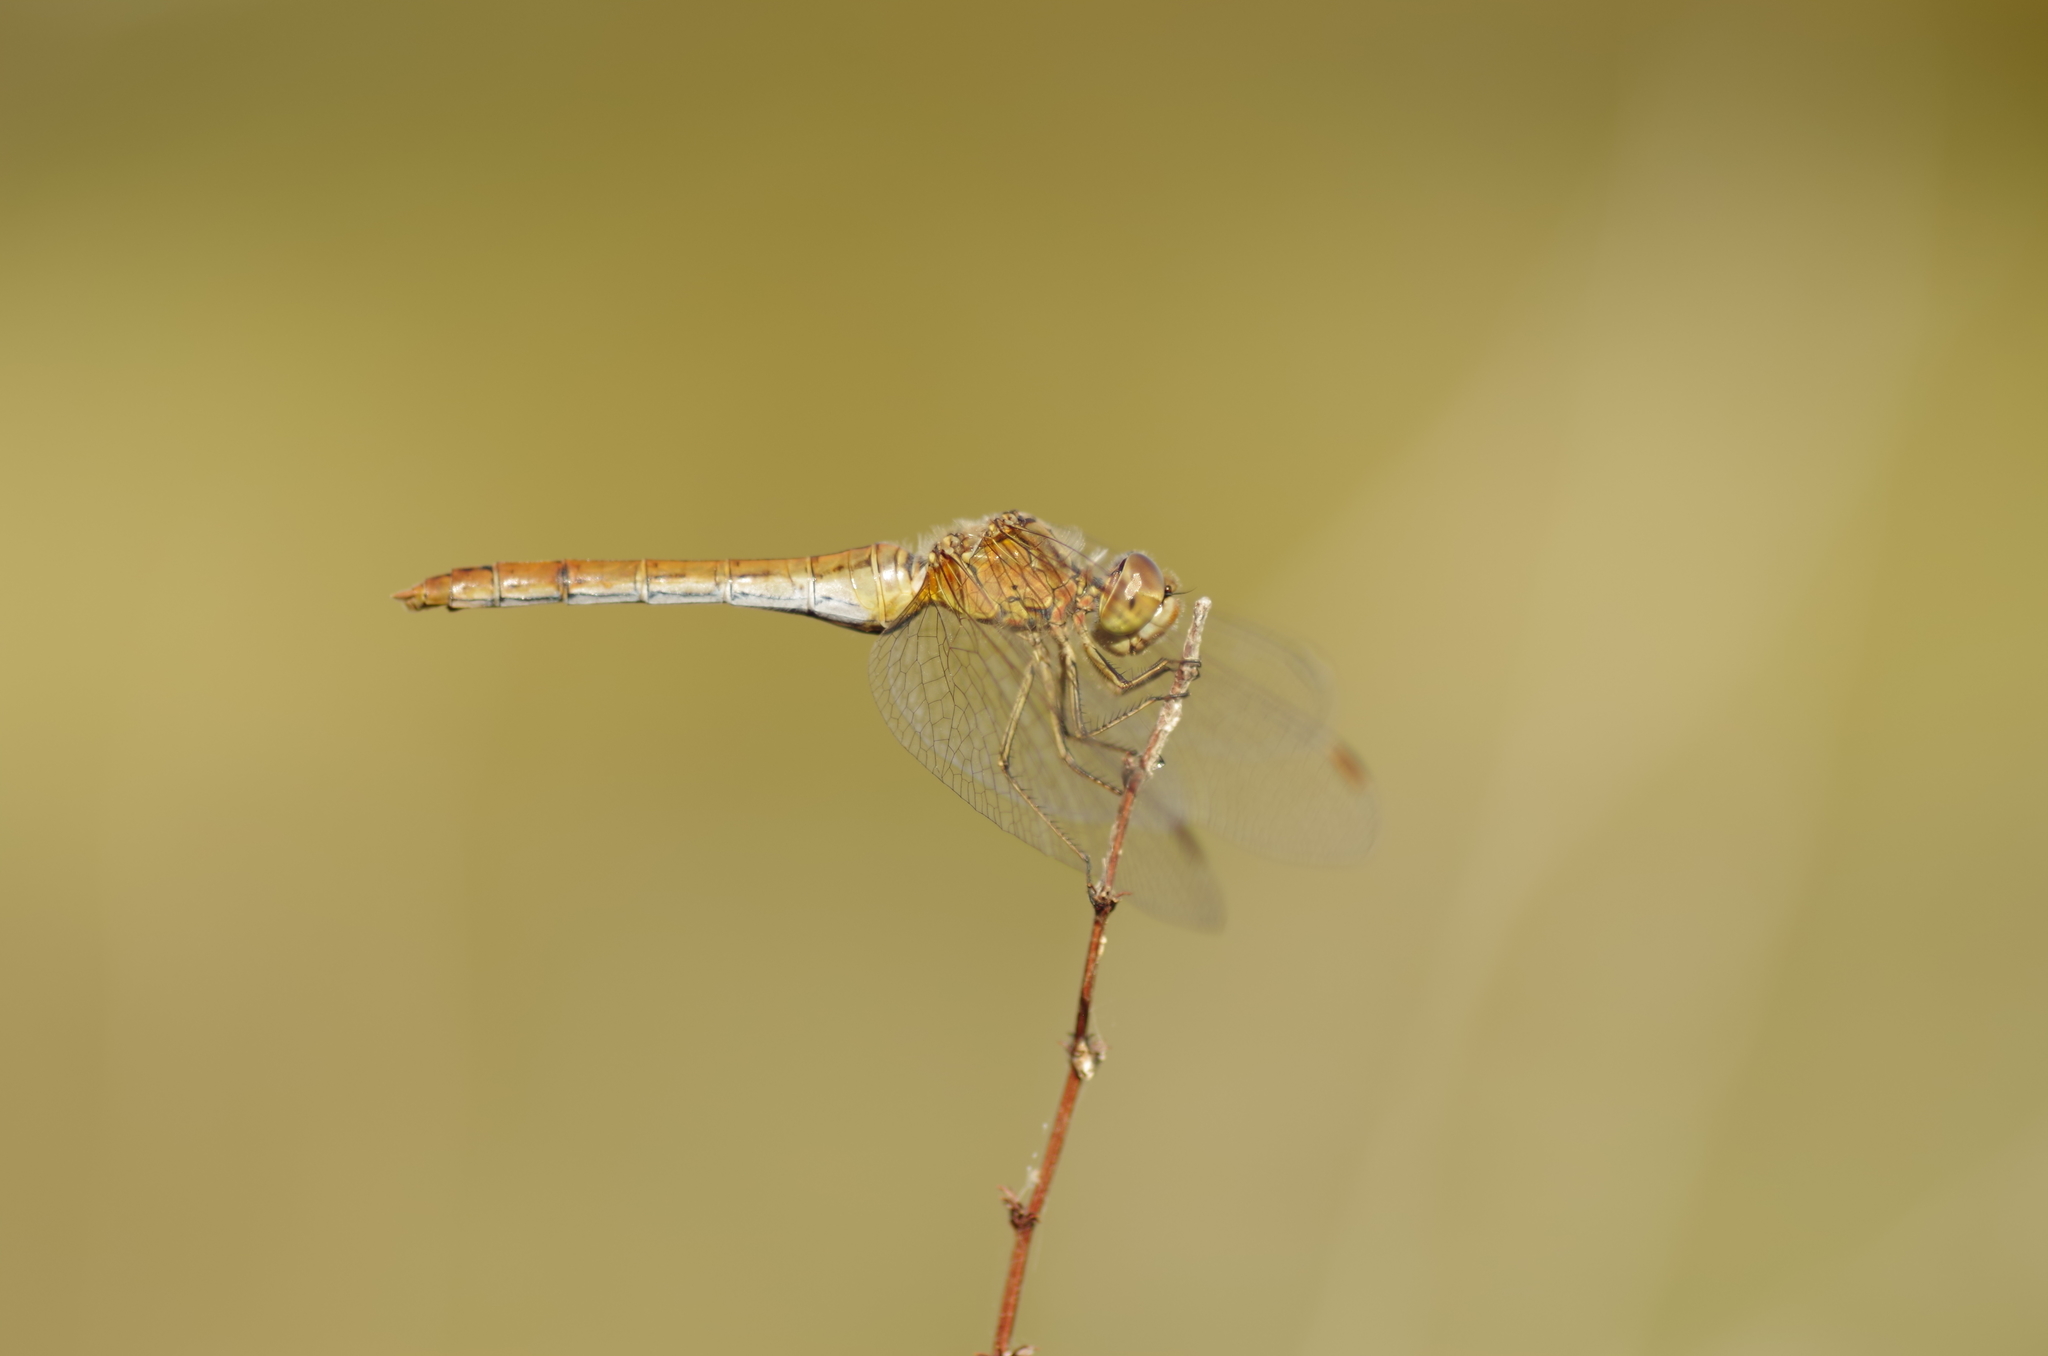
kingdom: Animalia
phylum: Arthropoda
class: Insecta
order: Odonata
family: Libellulidae
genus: Sympetrum
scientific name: Sympetrum meridionale
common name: Southern darter
